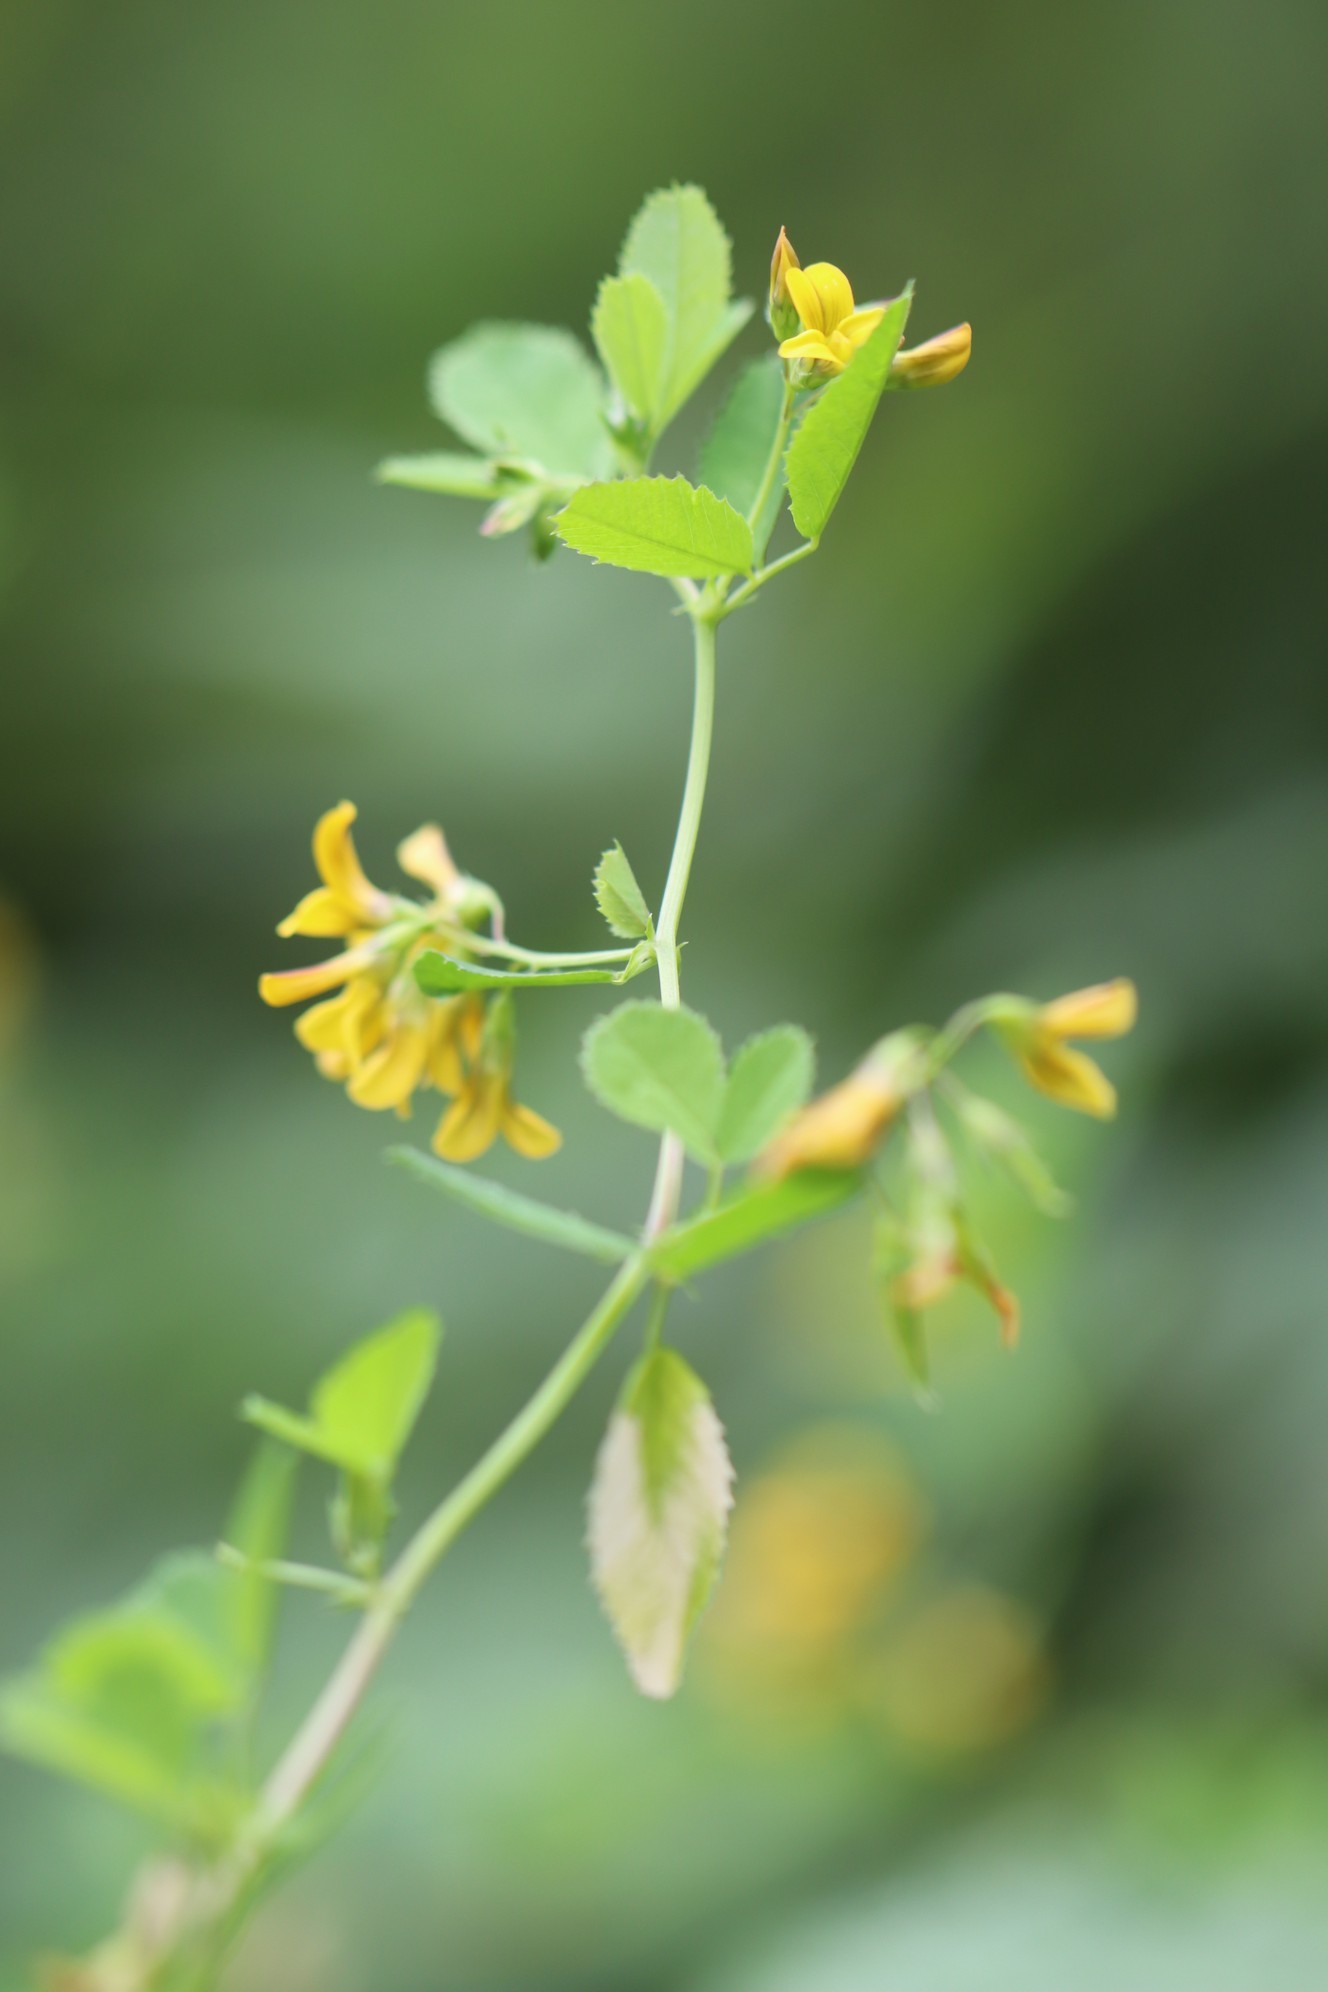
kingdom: Plantae
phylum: Tracheophyta
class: Magnoliopsida
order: Fabales
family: Fabaceae
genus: Medicago
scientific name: Medicago platycarpos
